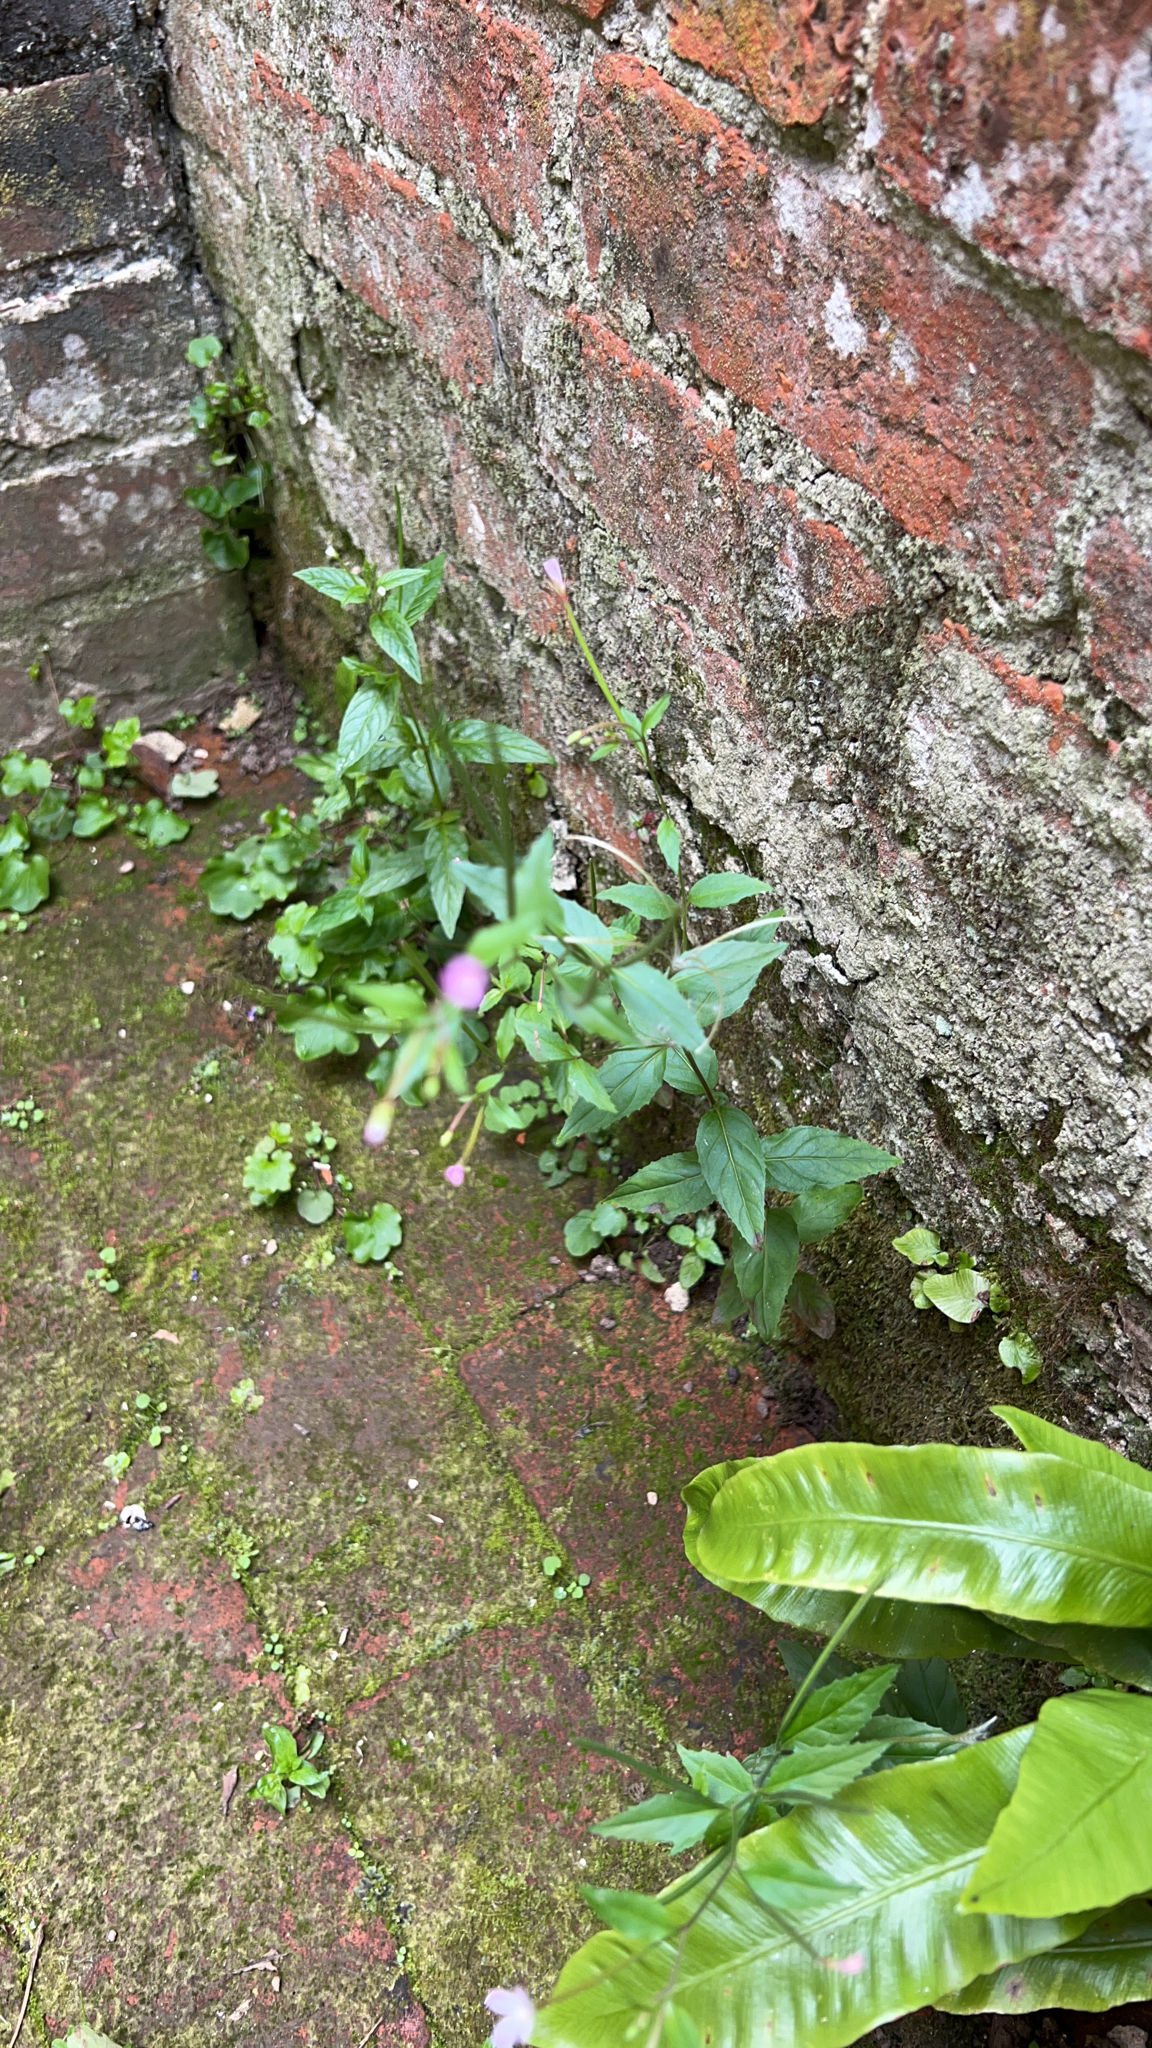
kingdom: Plantae
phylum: Tracheophyta
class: Magnoliopsida
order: Myrtales
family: Onagraceae
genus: Epilobium
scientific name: Epilobium montanum
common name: Broad-leaved willowherb
